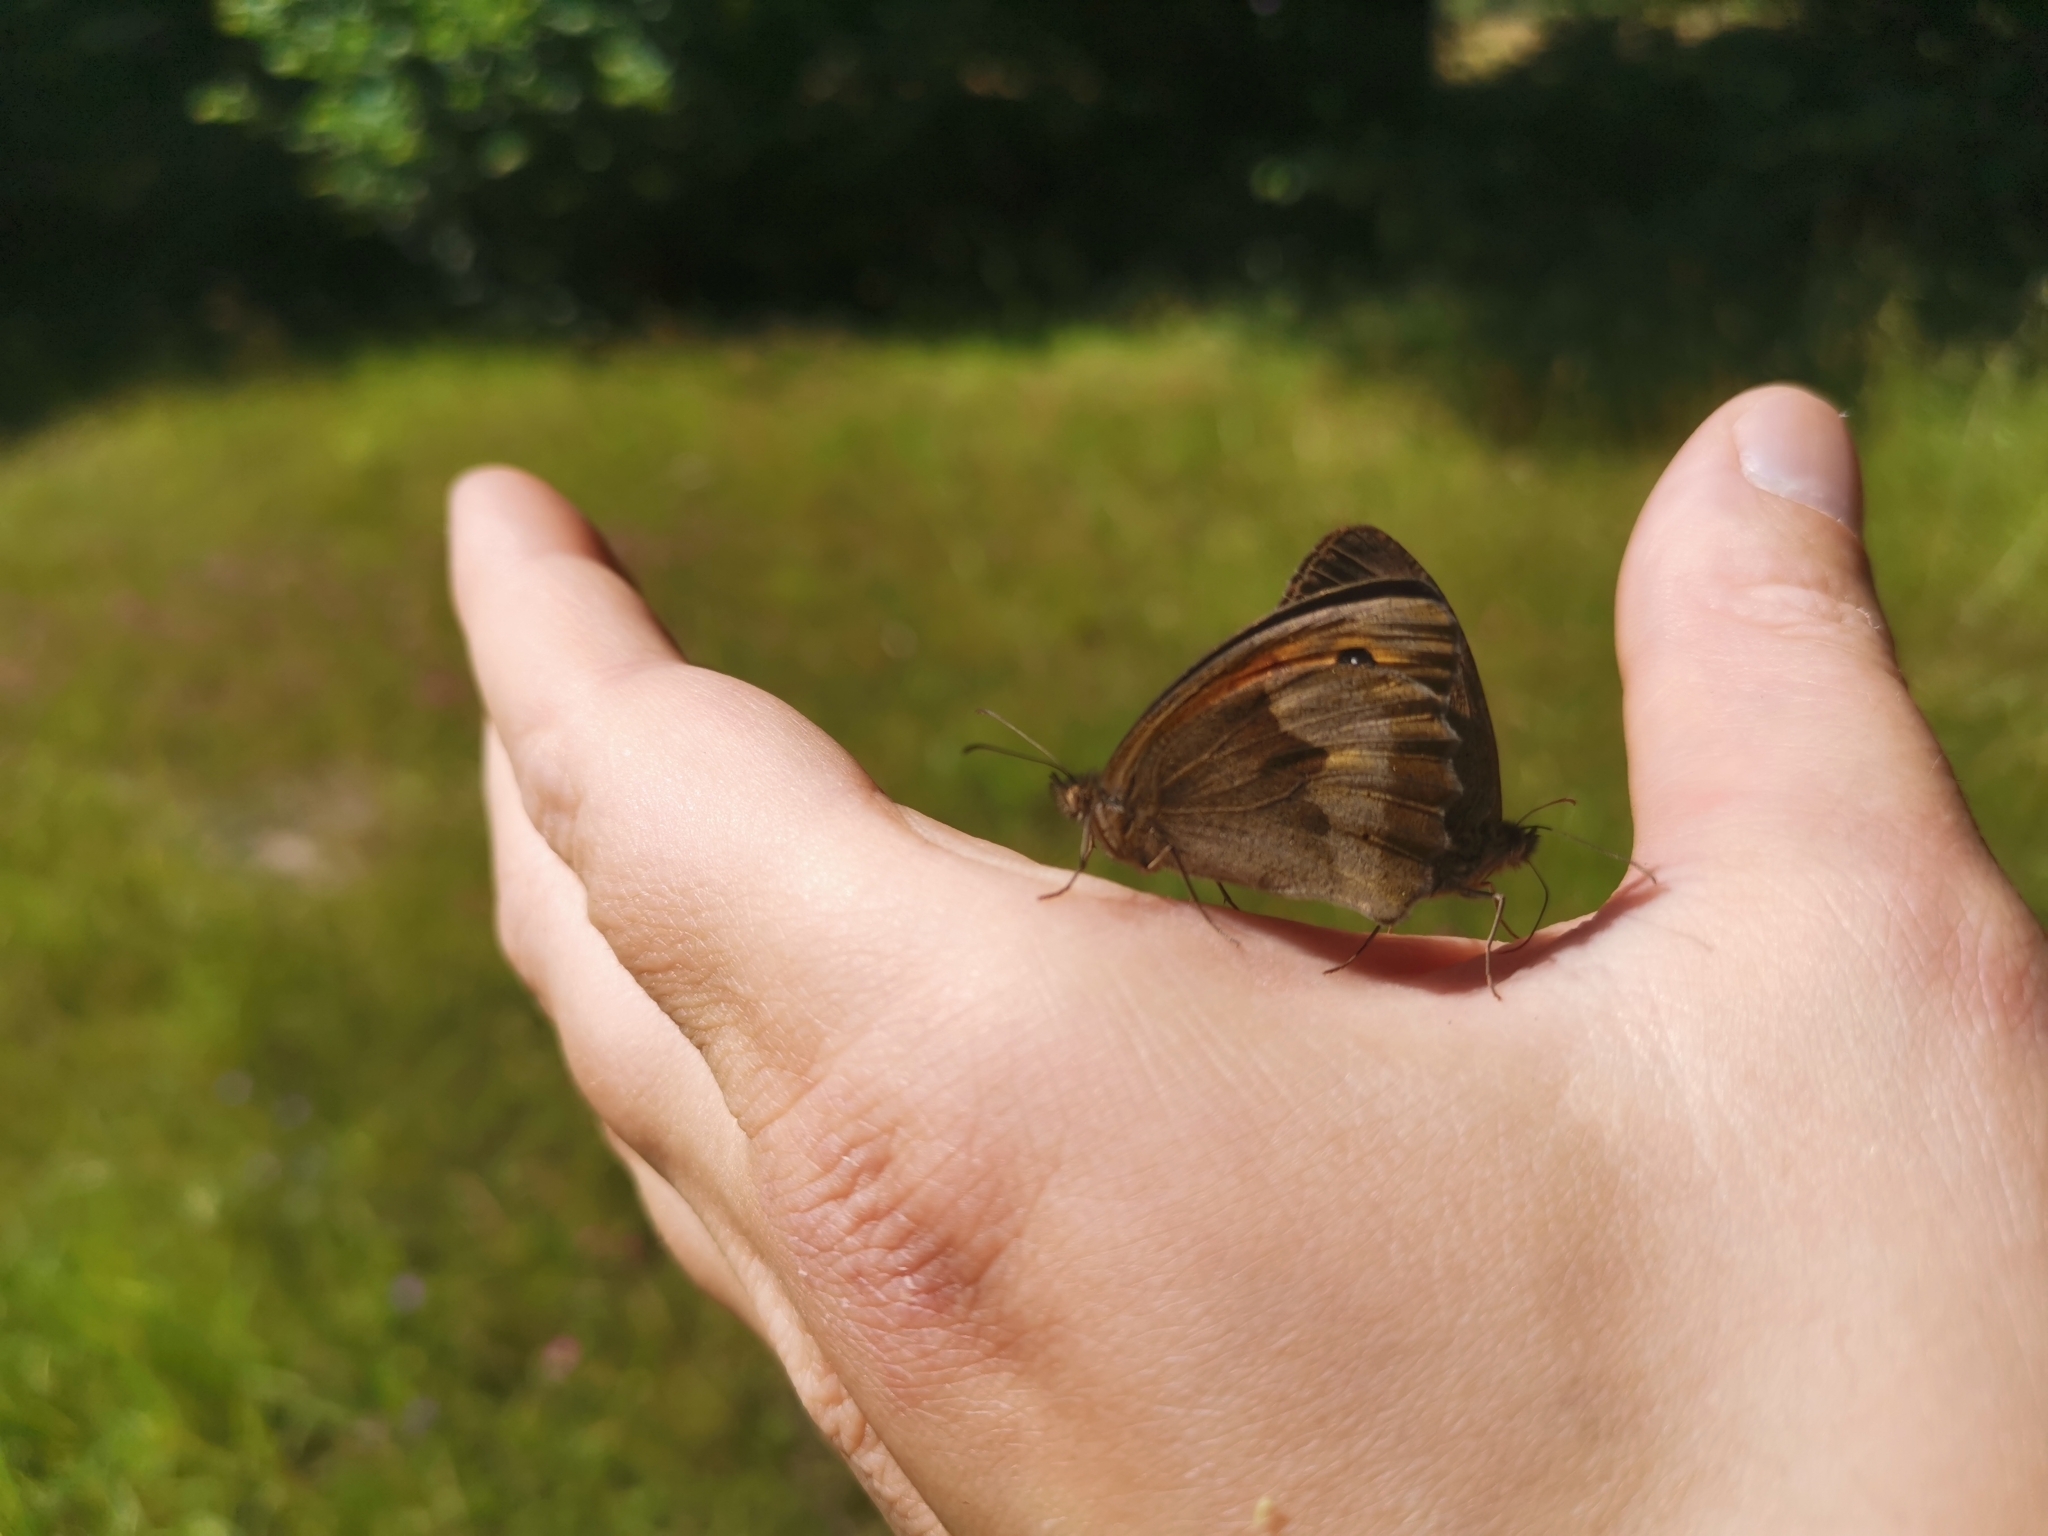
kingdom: Animalia
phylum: Arthropoda
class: Insecta
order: Lepidoptera
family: Nymphalidae
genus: Maniola
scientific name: Maniola jurtina
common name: Meadow brown
